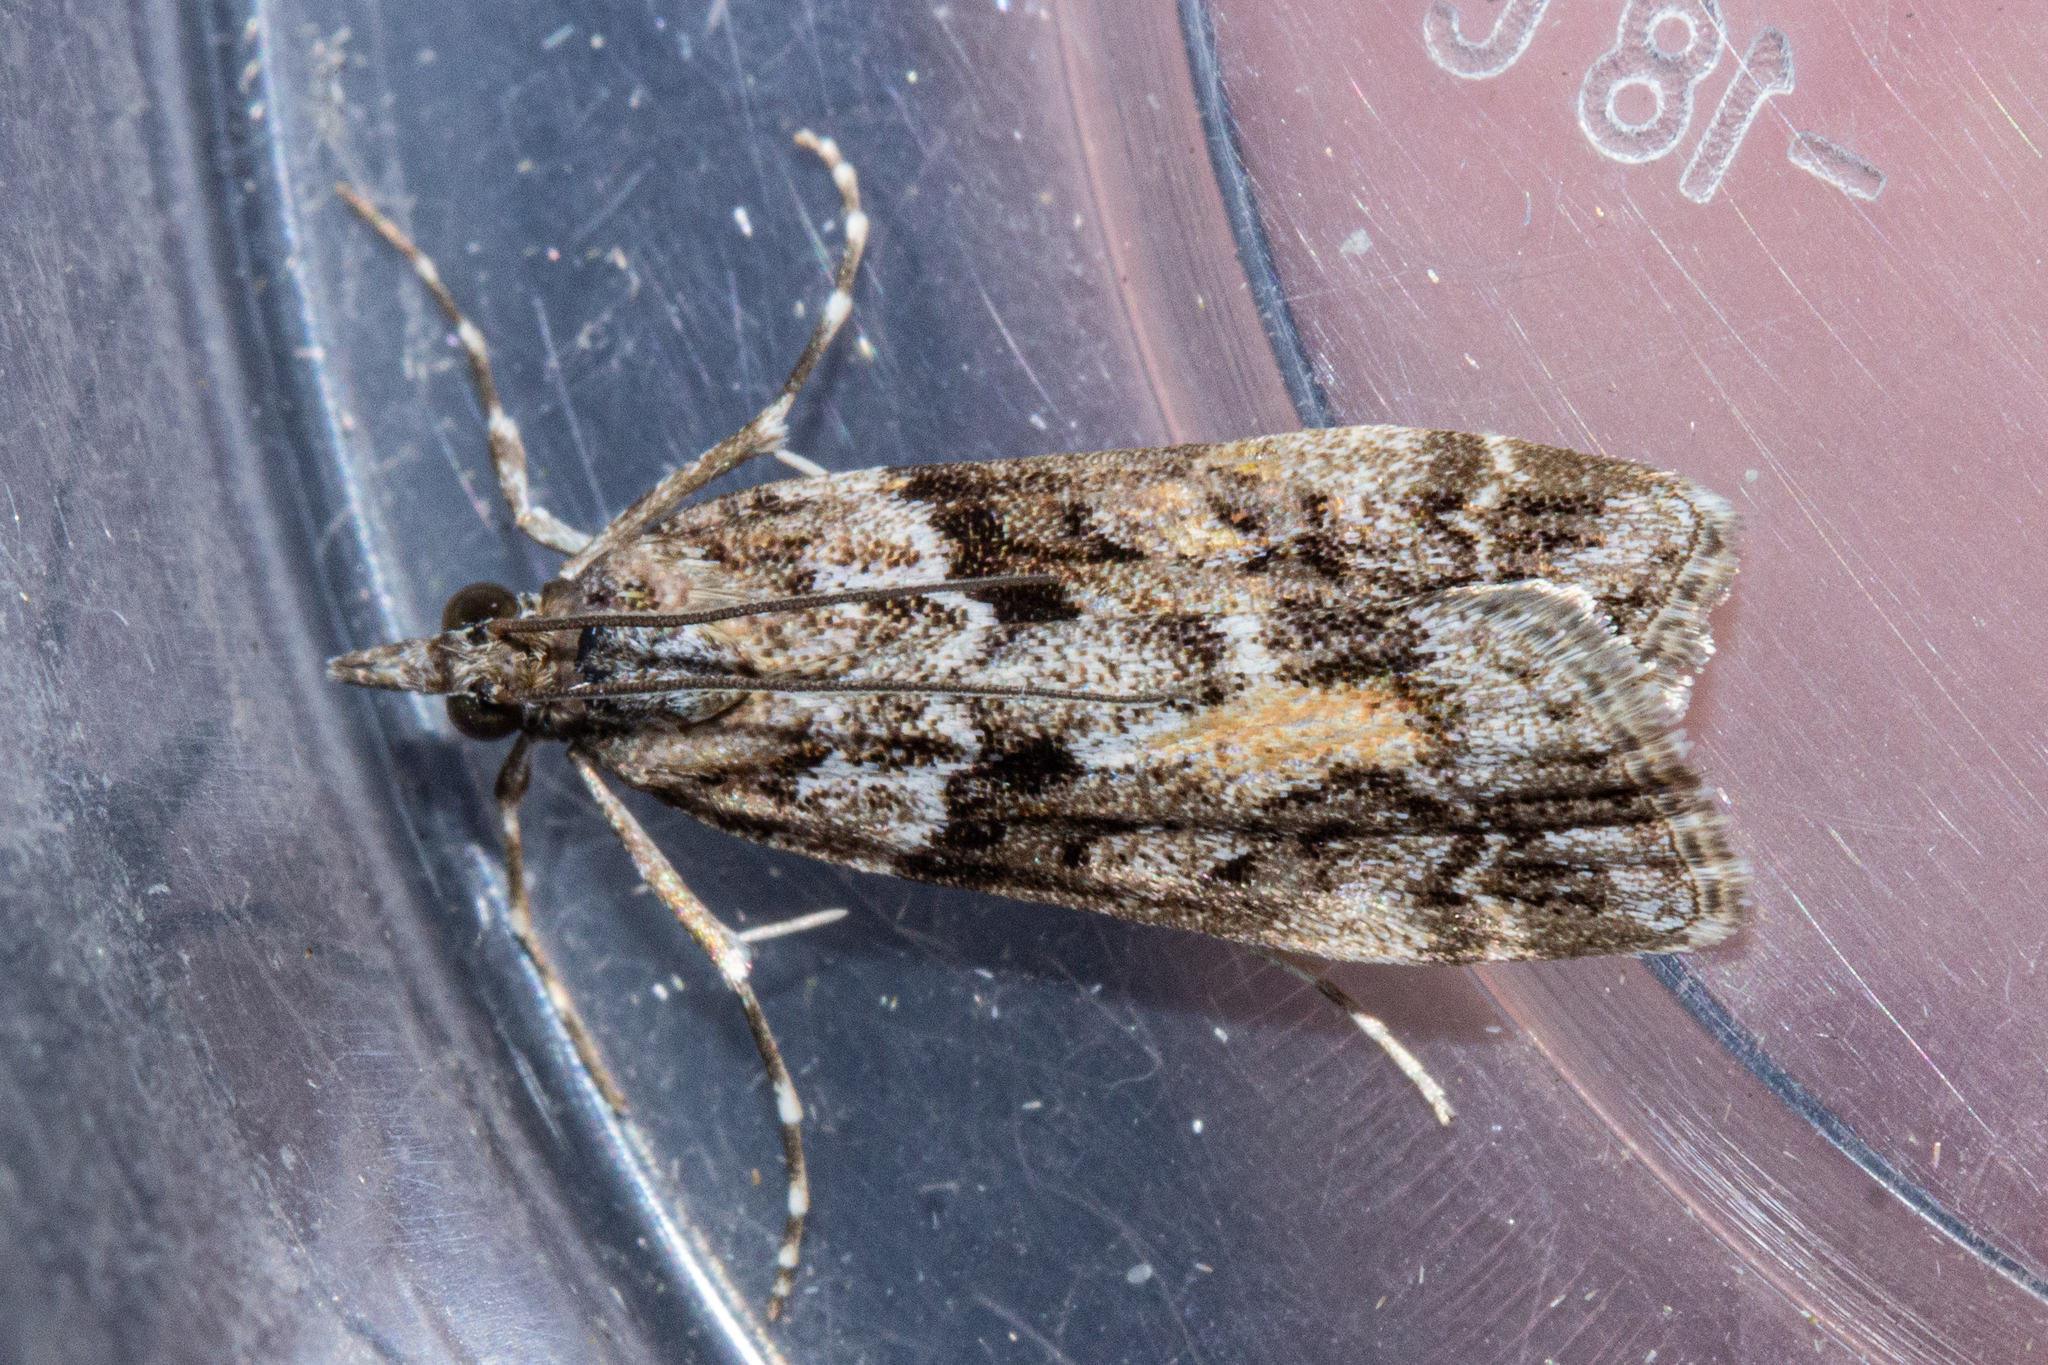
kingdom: Animalia
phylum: Arthropoda
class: Insecta
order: Lepidoptera
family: Crambidae
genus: Eudonia
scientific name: Eudonia submarginalis
